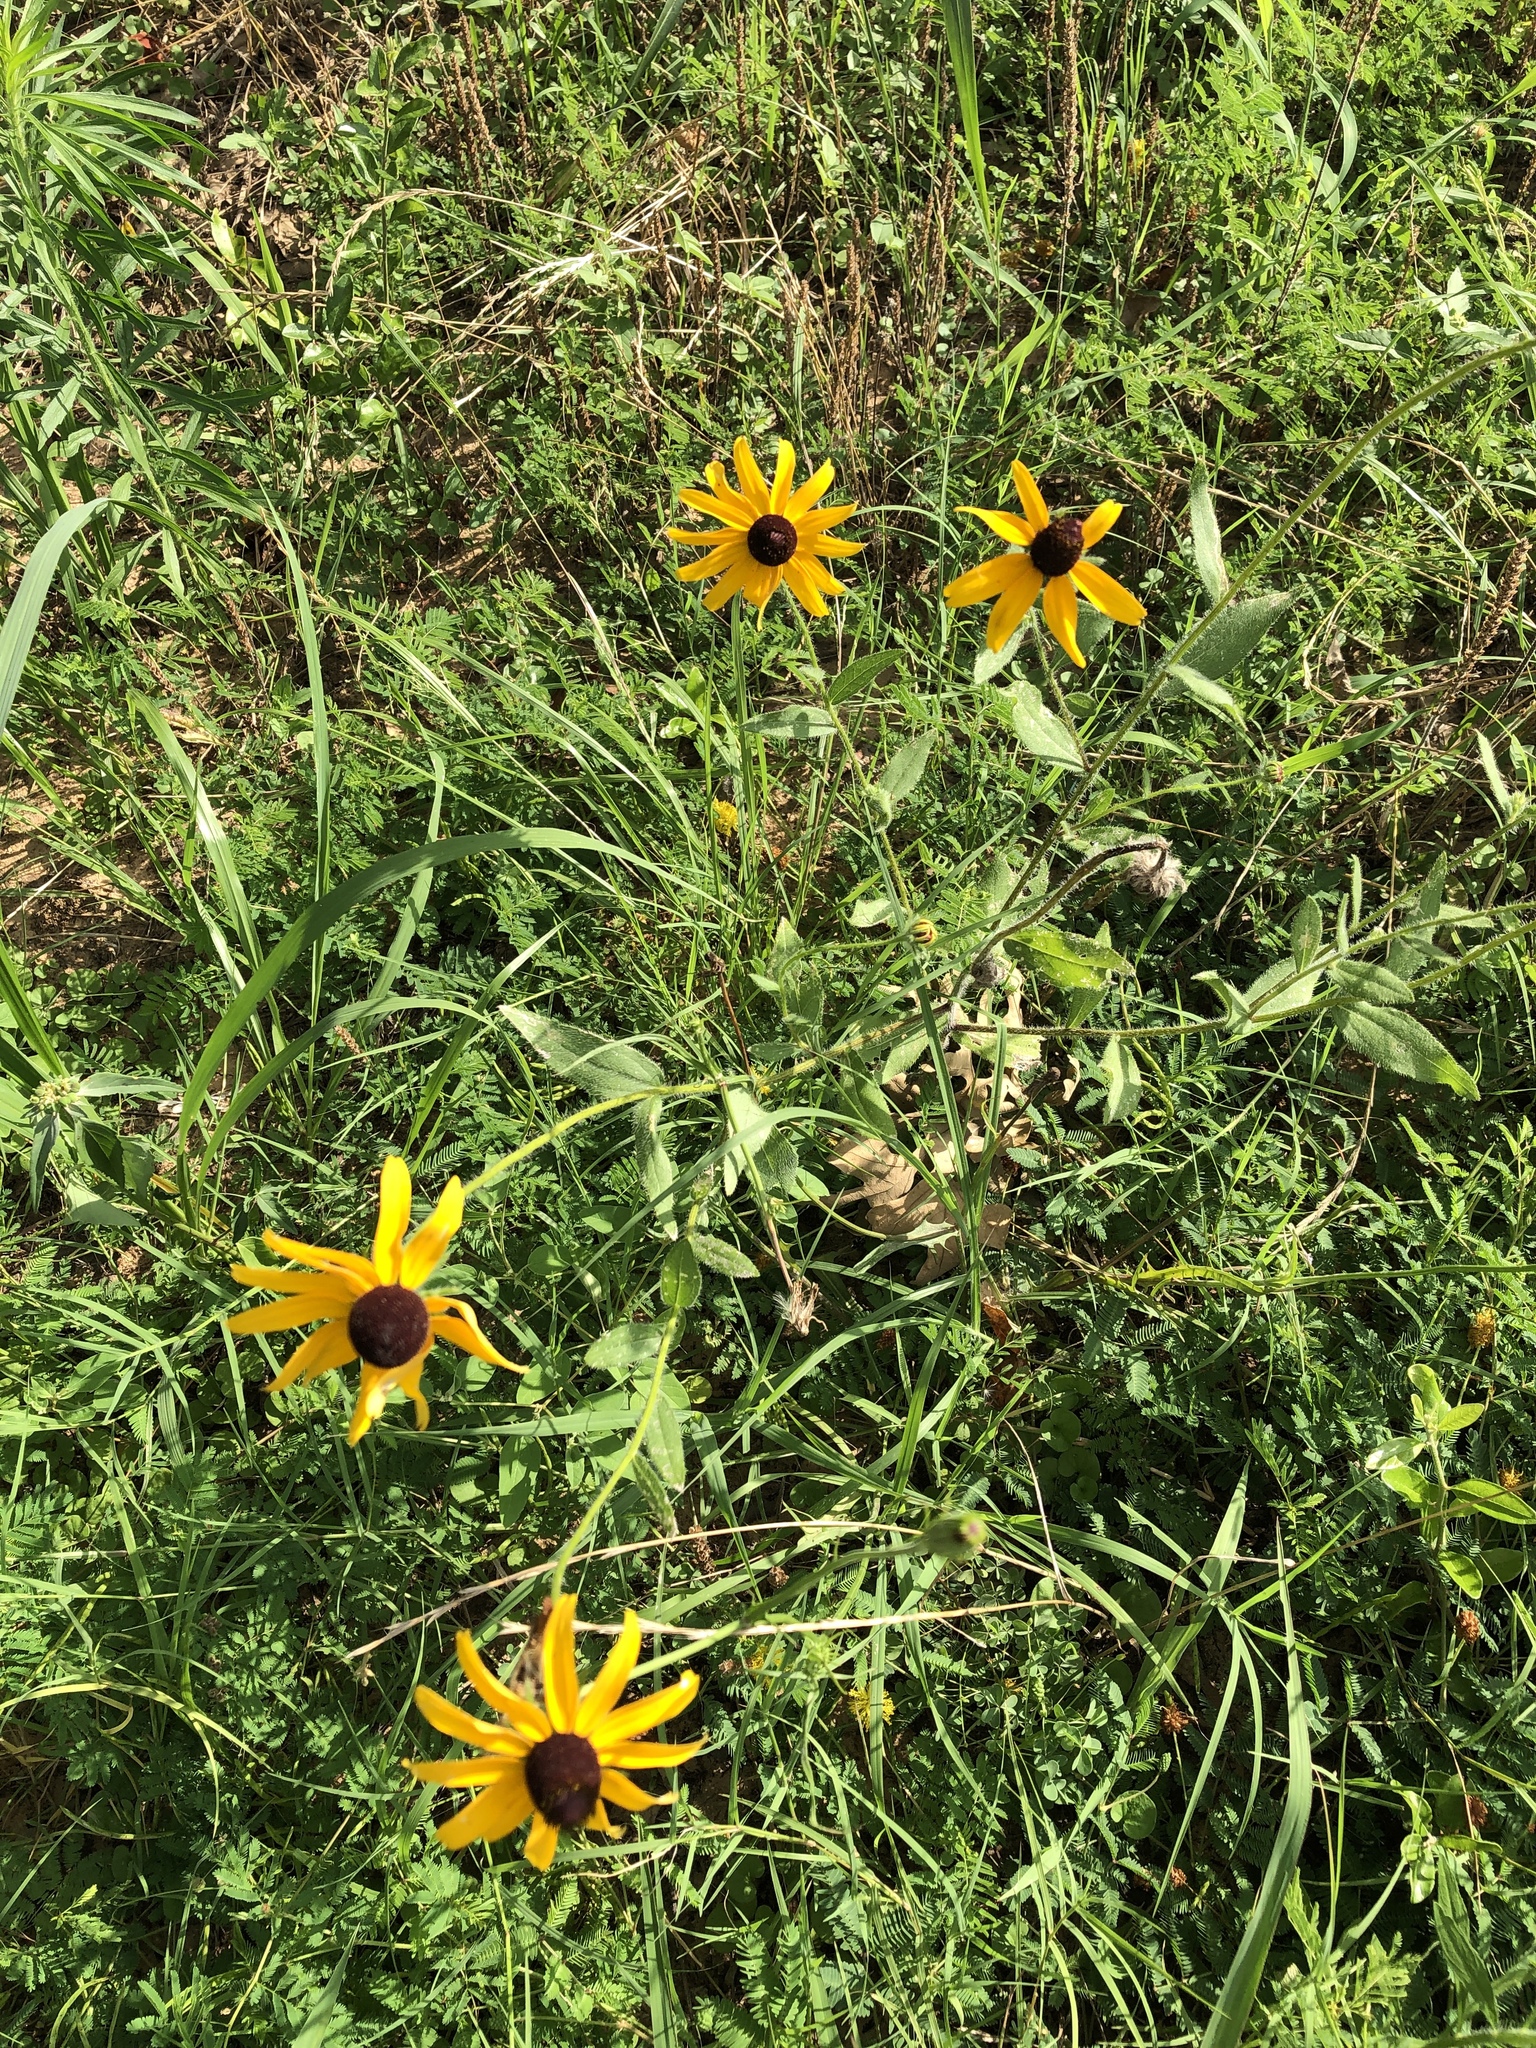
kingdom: Plantae
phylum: Tracheophyta
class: Magnoliopsida
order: Asterales
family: Asteraceae
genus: Rudbeckia
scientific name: Rudbeckia hirta
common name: Black-eyed-susan
